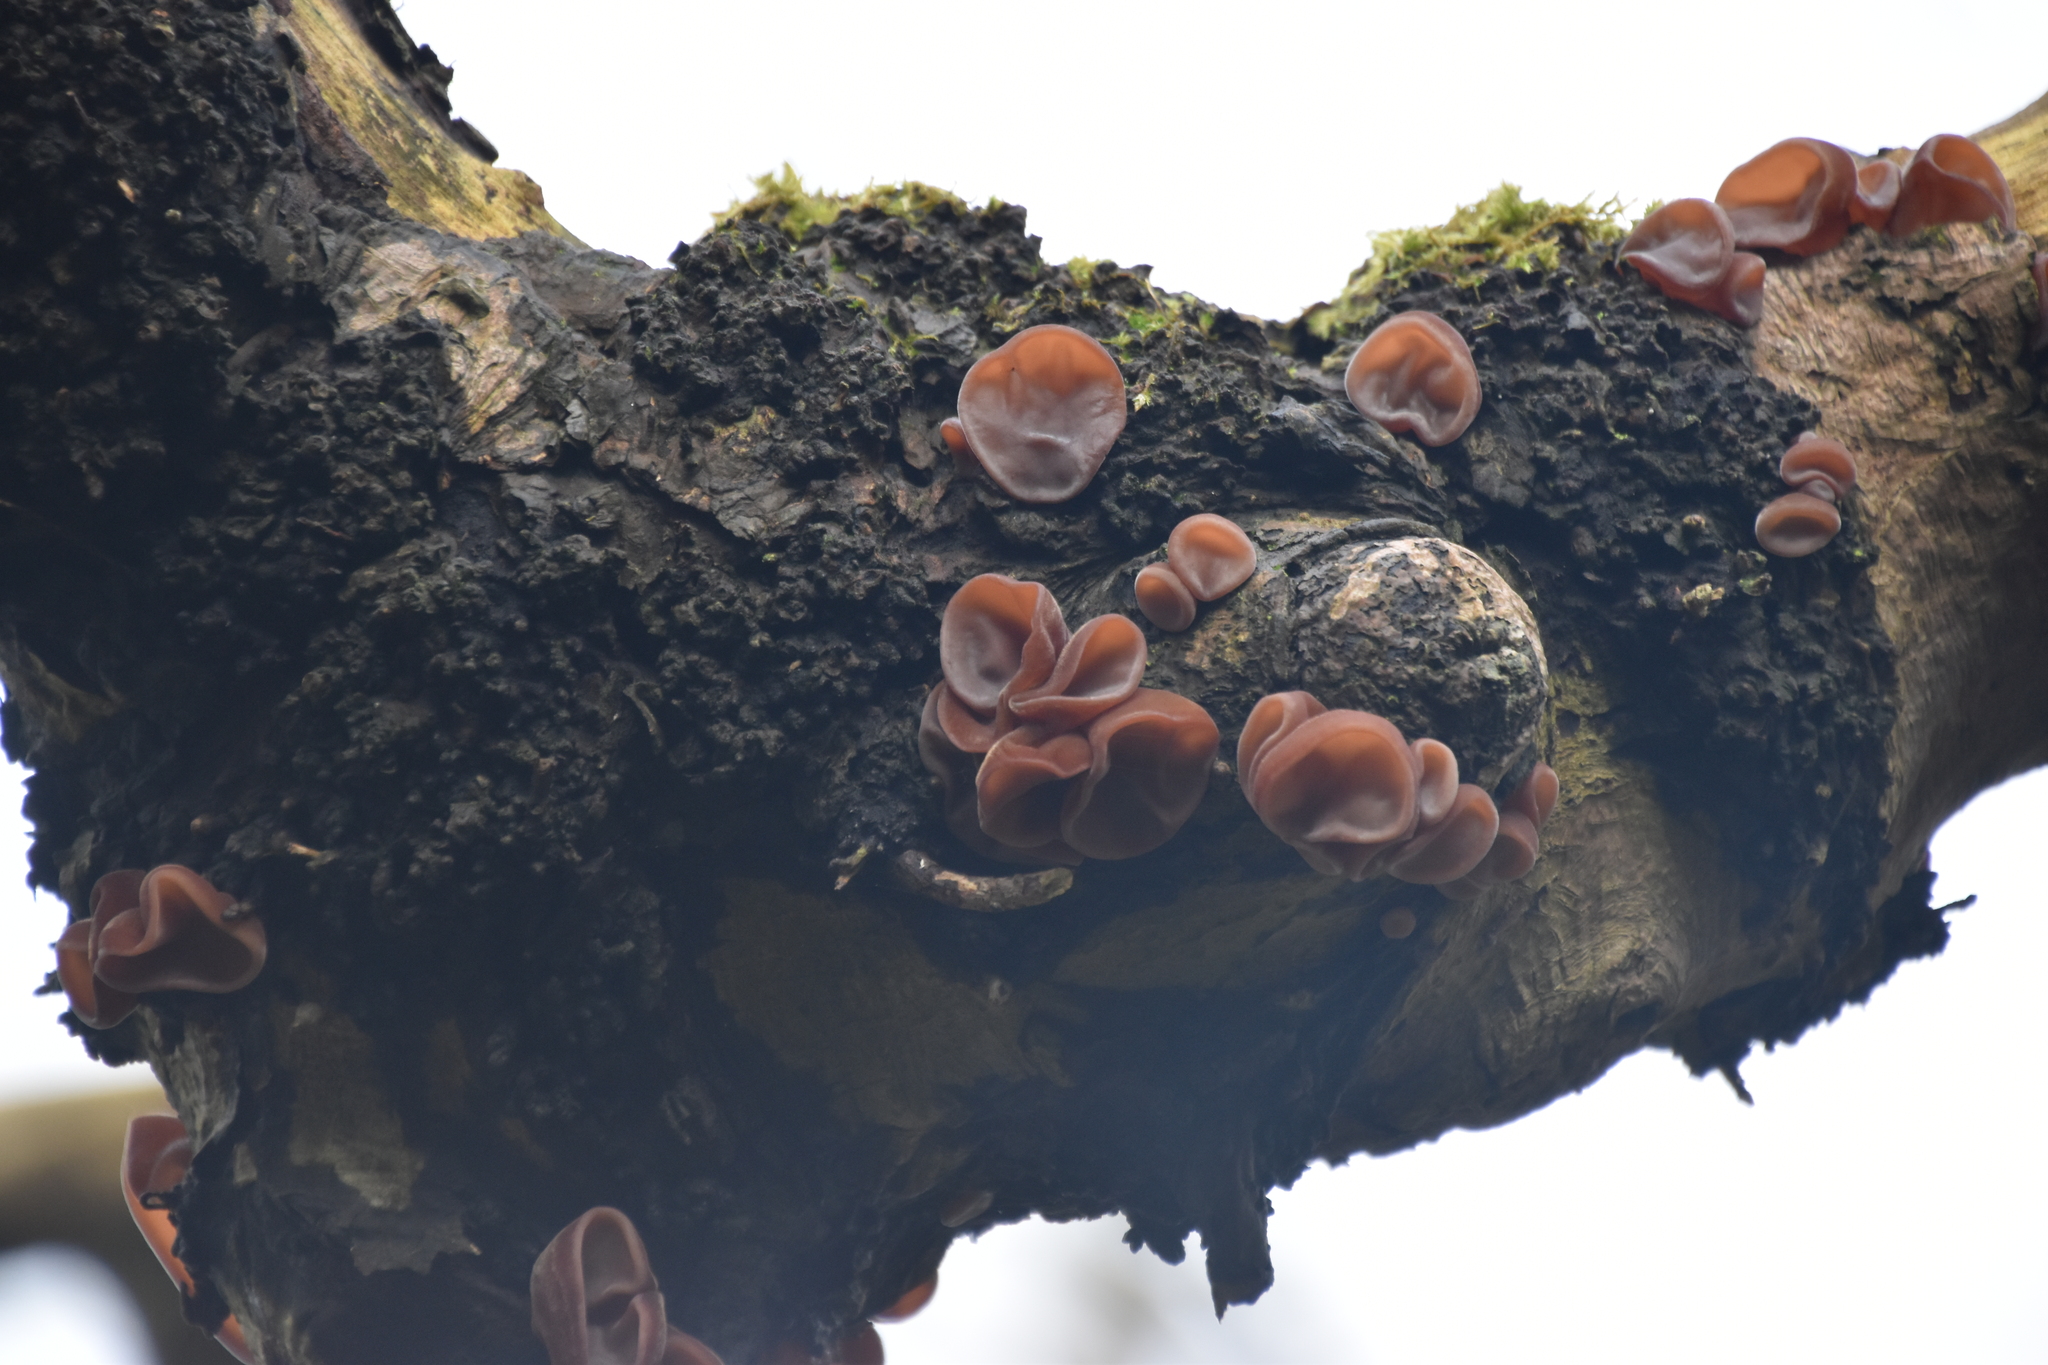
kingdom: Fungi
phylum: Basidiomycota
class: Agaricomycetes
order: Auriculariales
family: Auriculariaceae
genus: Auricularia
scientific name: Auricularia auricula-judae
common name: Jelly ear
